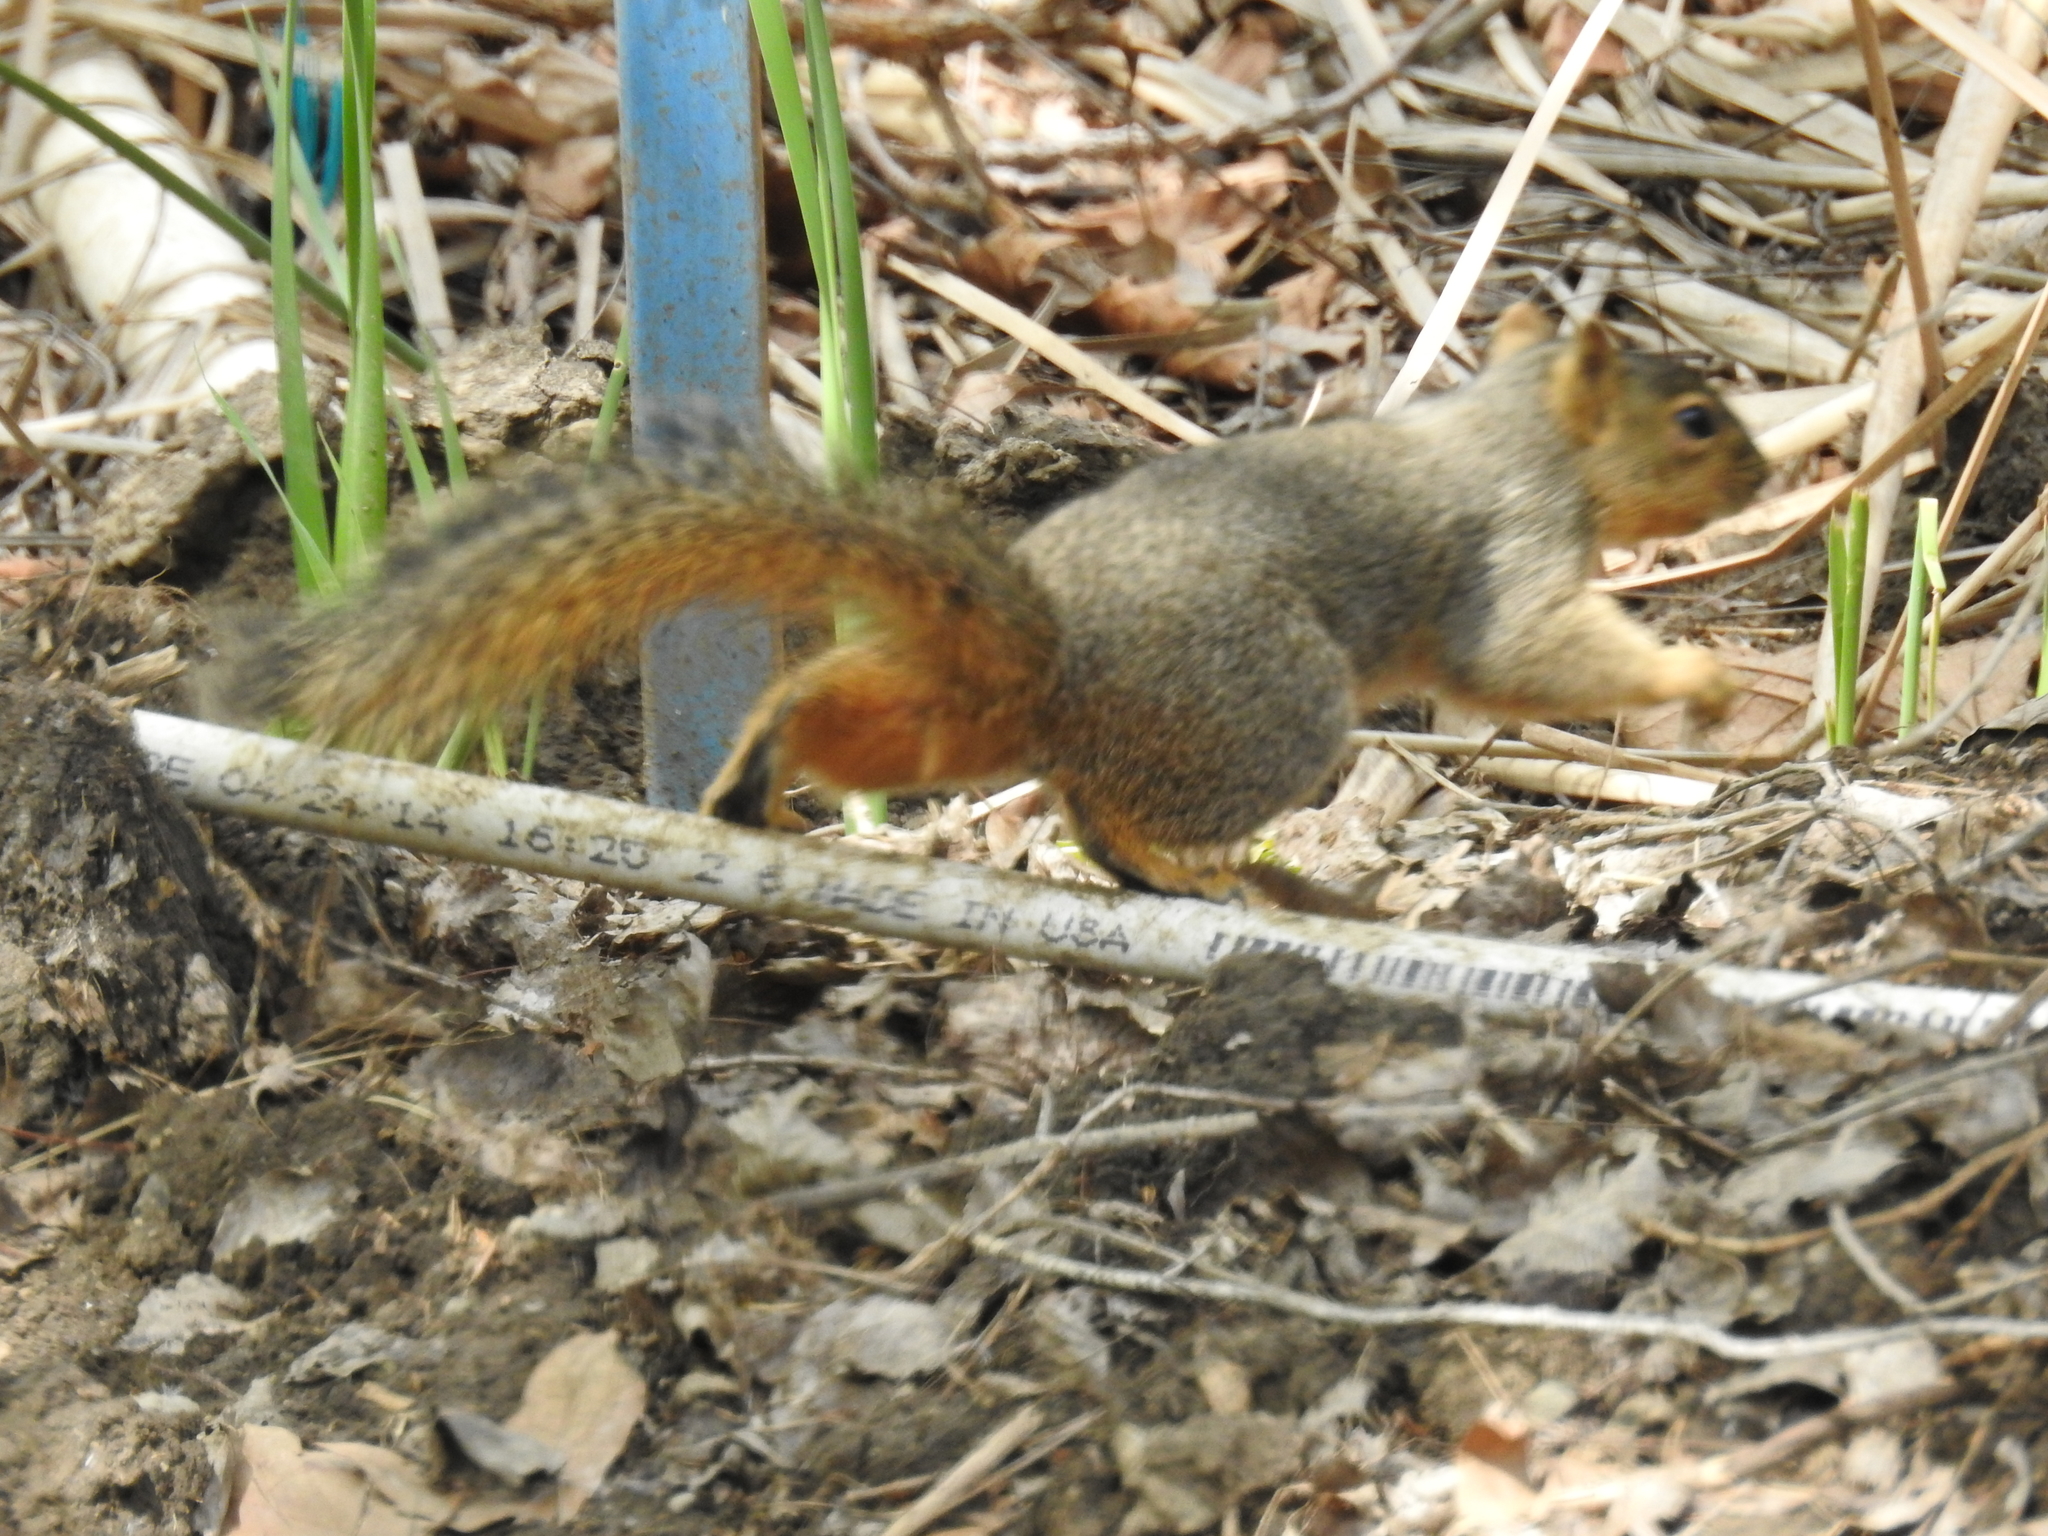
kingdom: Animalia
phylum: Chordata
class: Mammalia
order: Rodentia
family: Sciuridae
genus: Sciurus
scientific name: Sciurus niger
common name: Fox squirrel
